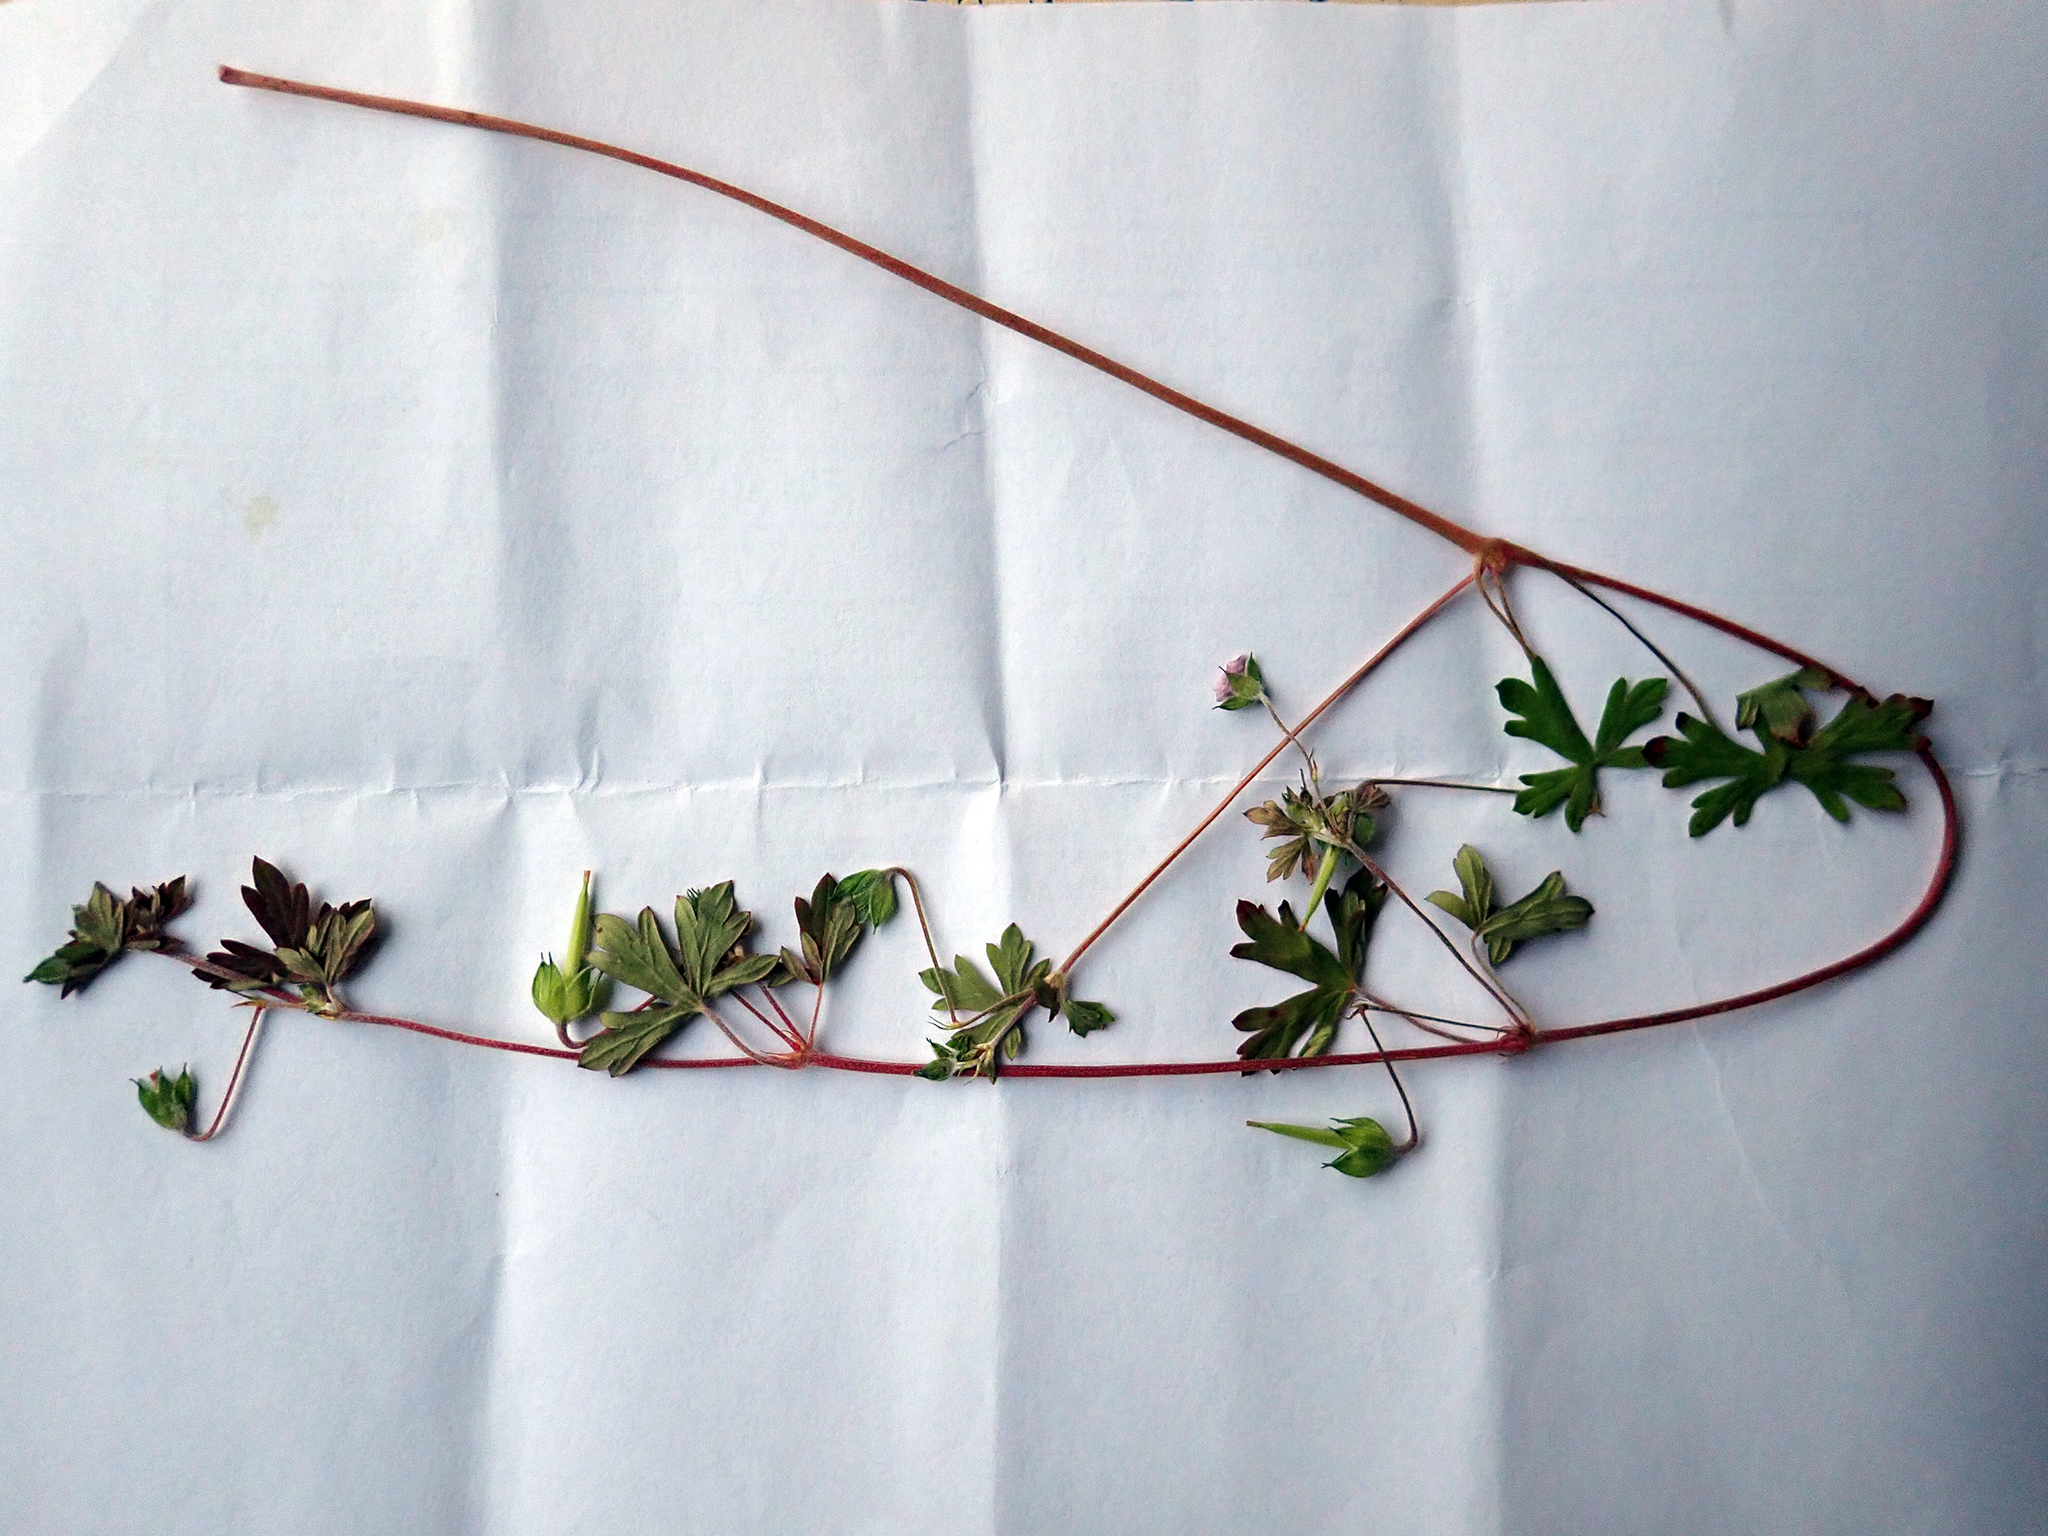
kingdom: Plantae
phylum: Tracheophyta
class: Magnoliopsida
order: Geraniales
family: Geraniaceae
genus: Geranium
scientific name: Geranium
